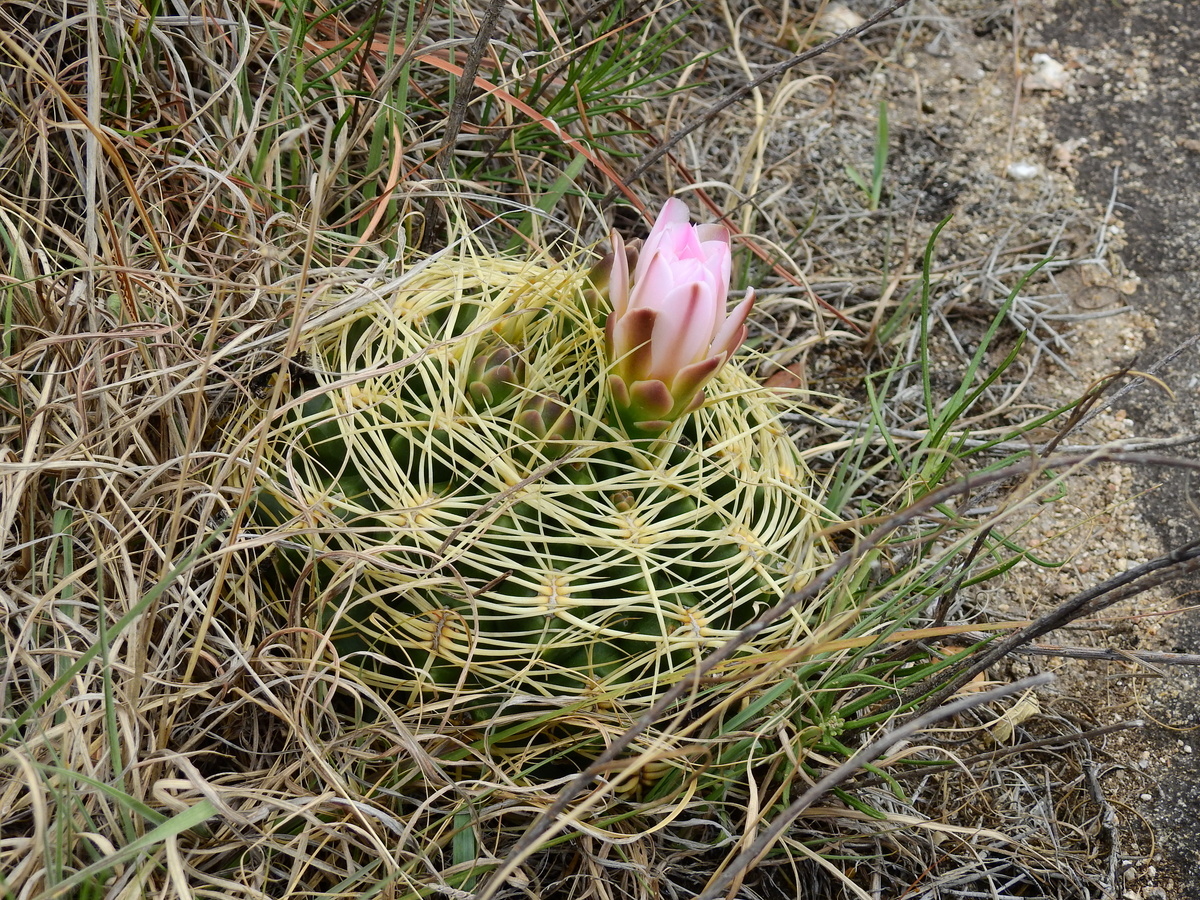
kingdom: Plantae
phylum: Tracheophyta
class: Magnoliopsida
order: Caryophyllales
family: Cactaceae
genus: Gymnocalycium
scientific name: Gymnocalycium monvillei
